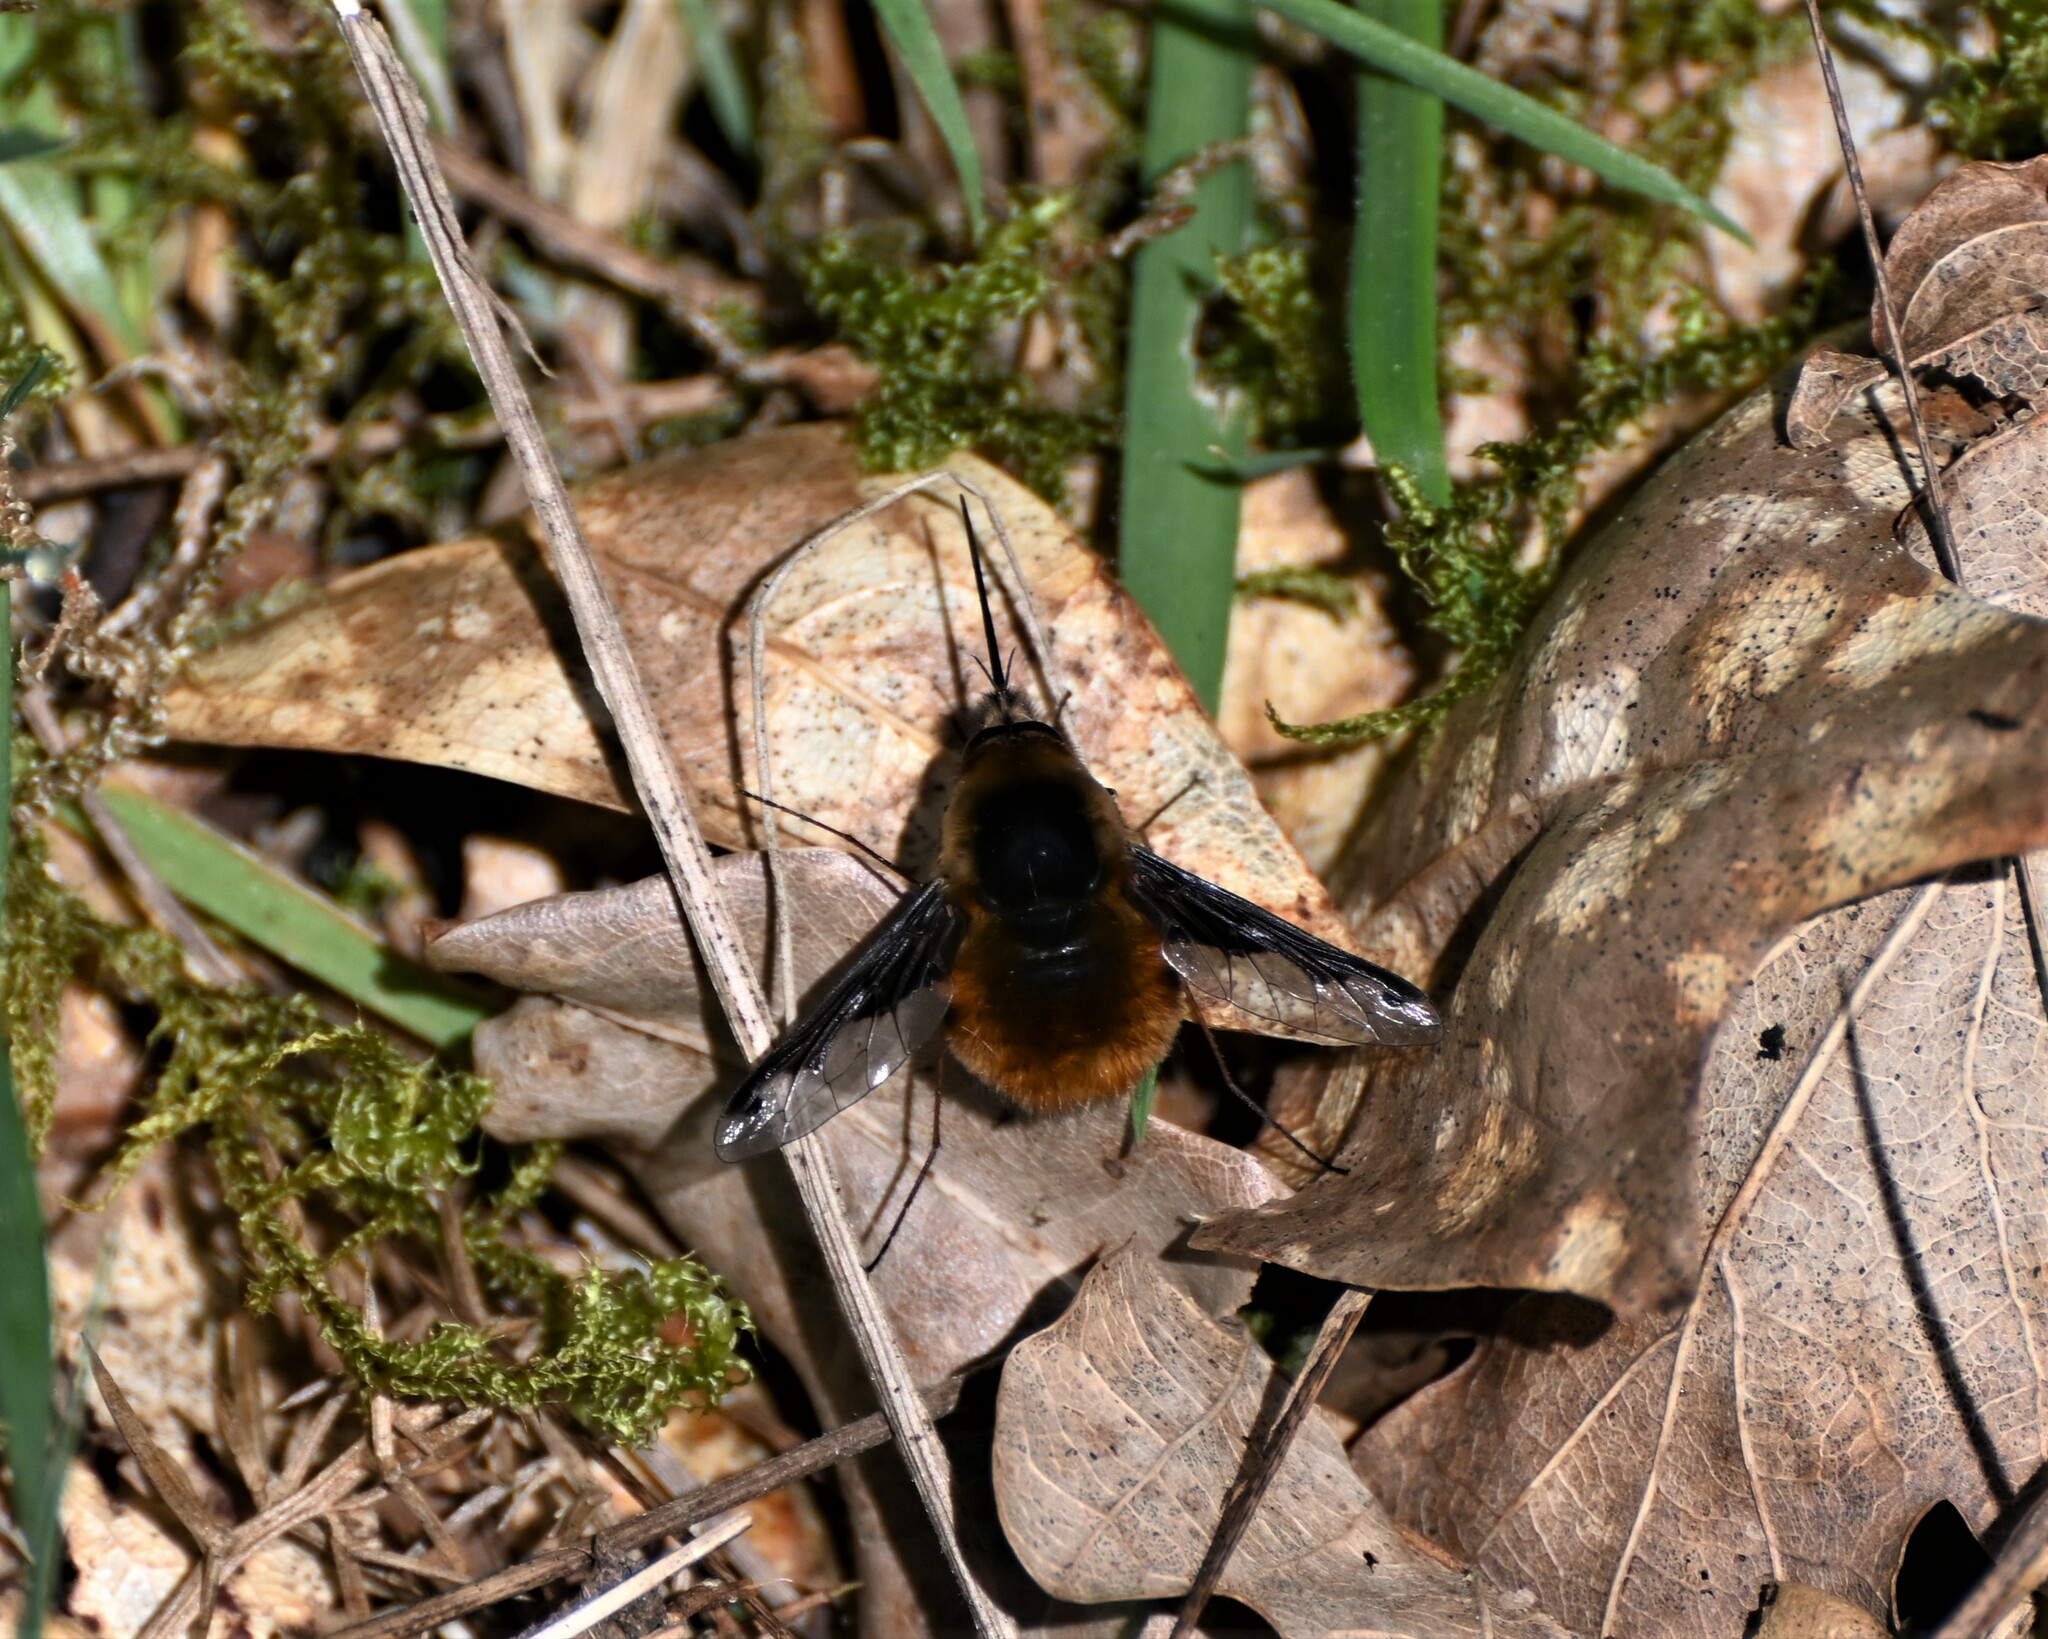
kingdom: Animalia
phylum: Arthropoda
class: Insecta
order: Diptera
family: Bombyliidae
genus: Bombylius
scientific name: Bombylius major
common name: Bee fly
